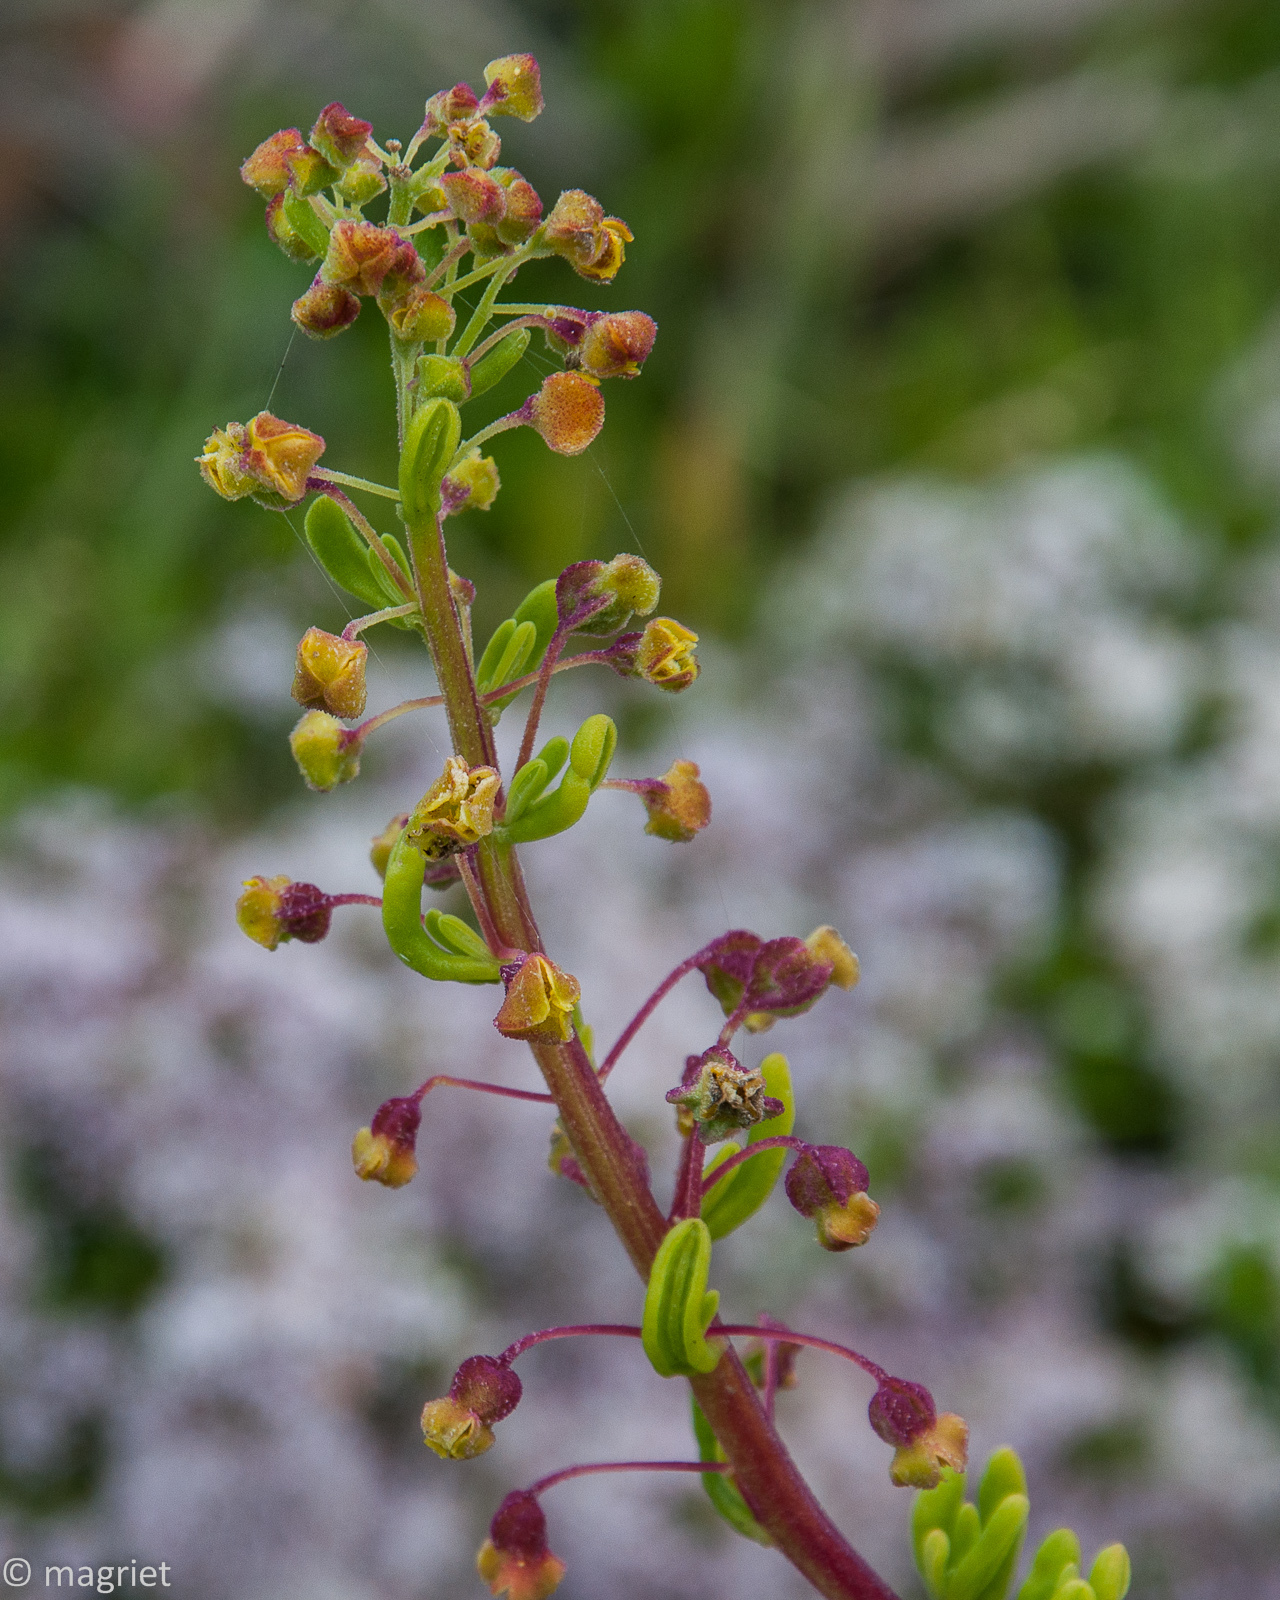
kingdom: Plantae
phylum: Tracheophyta
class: Magnoliopsida
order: Caryophyllales
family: Aizoaceae
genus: Tetragonia
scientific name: Tetragonia fruticosa
